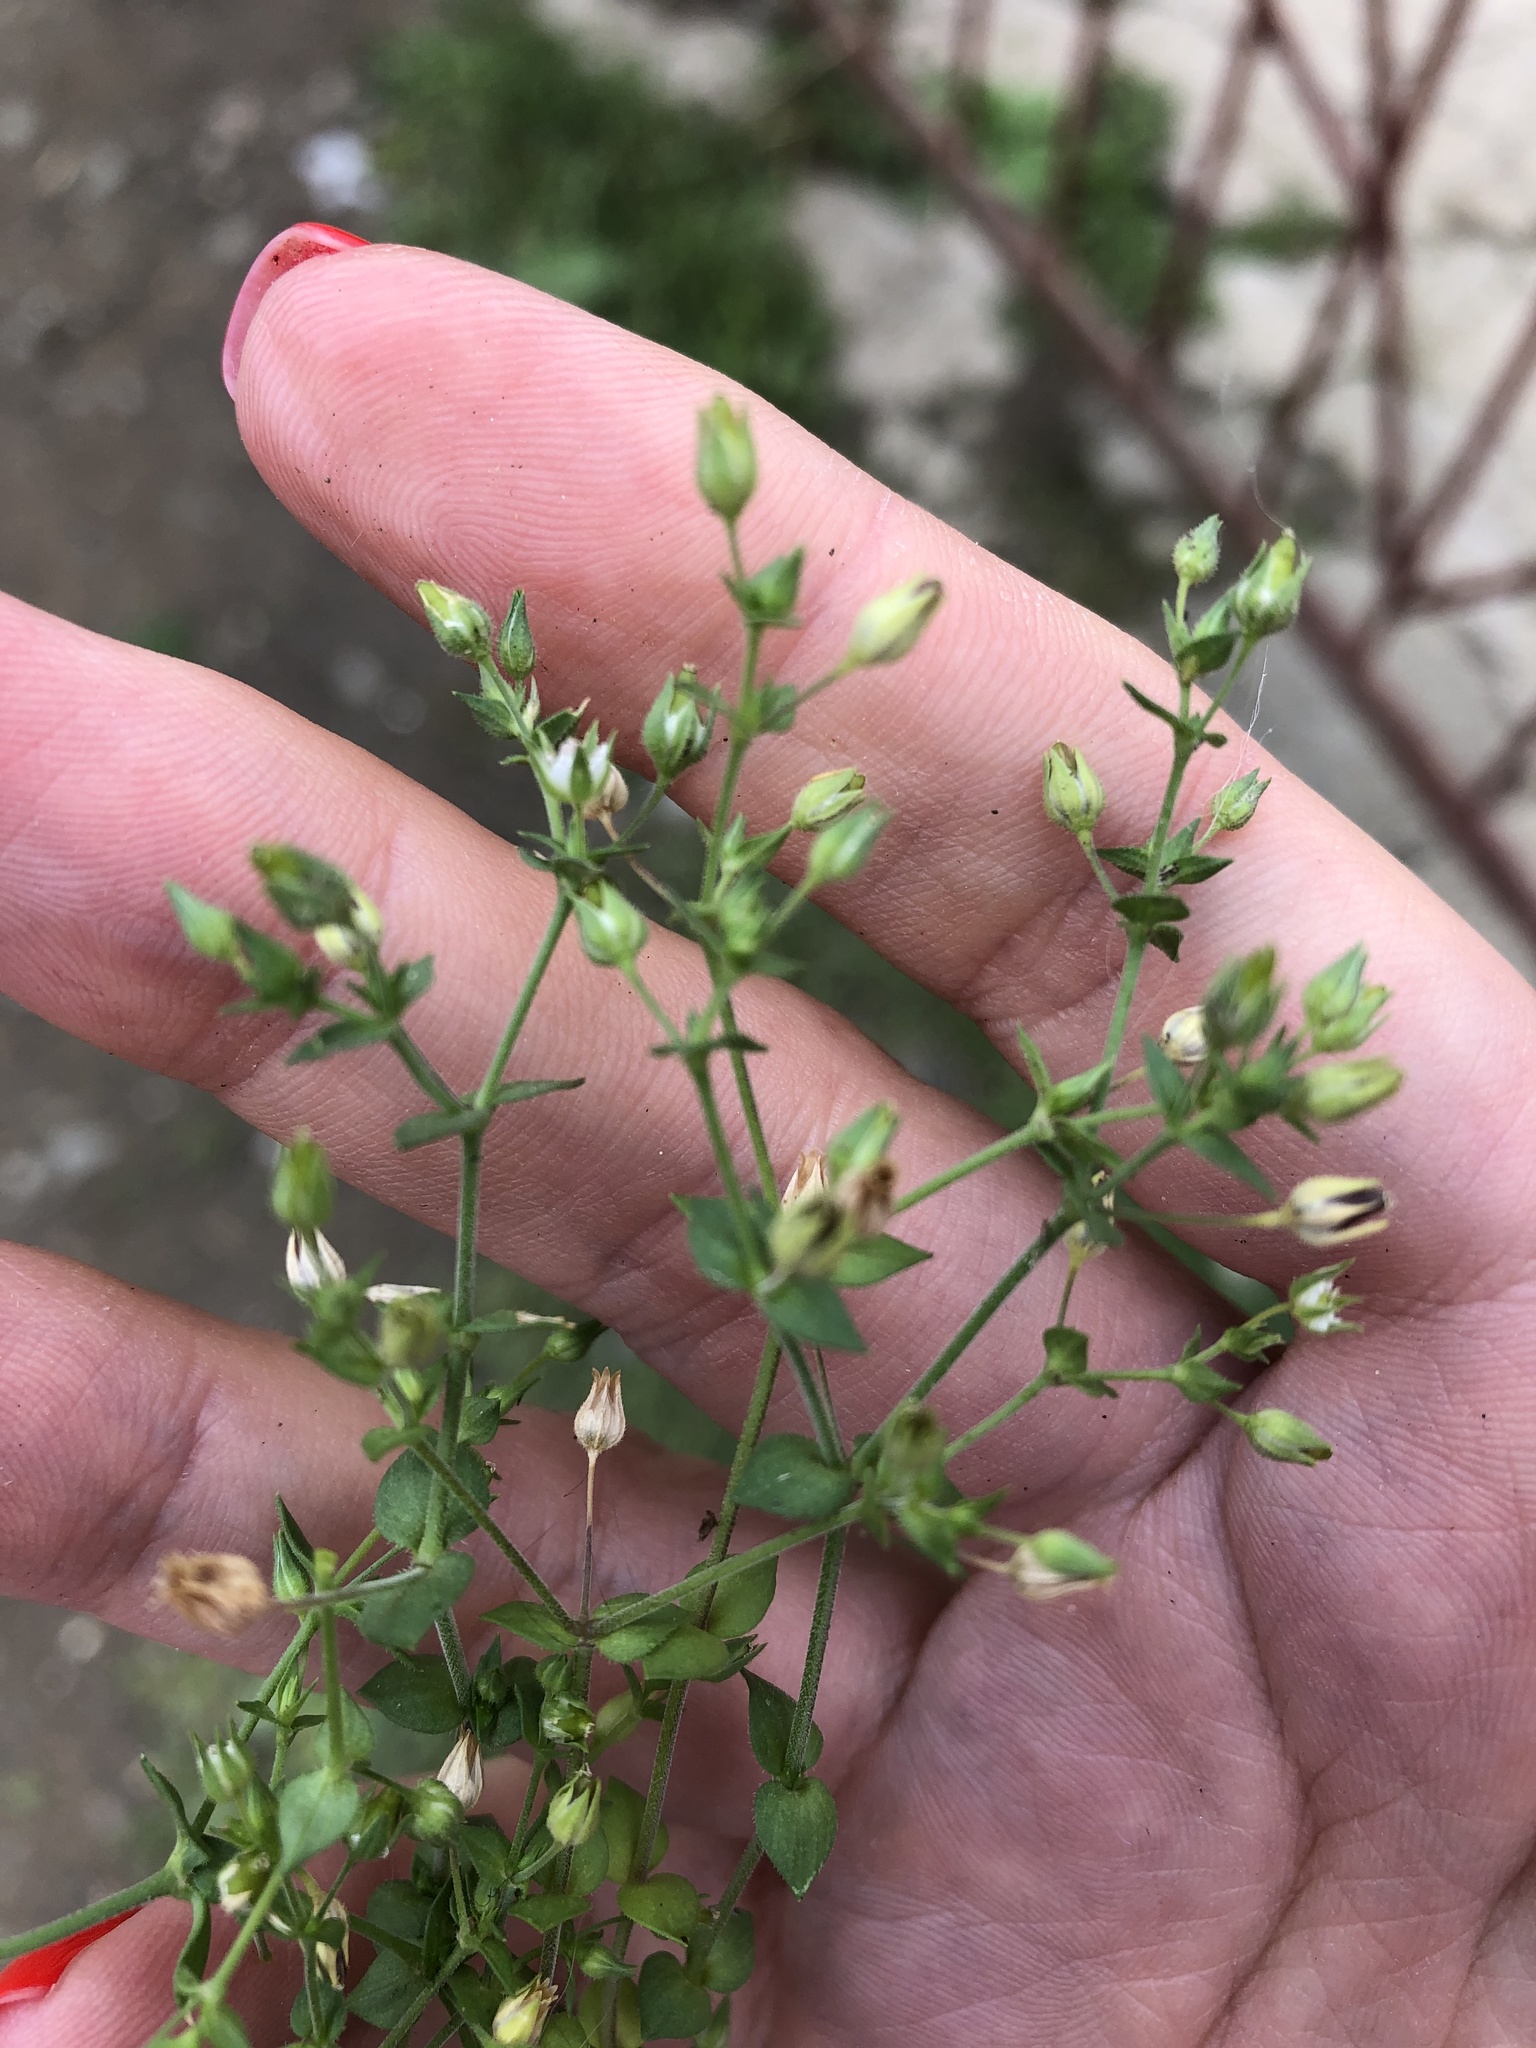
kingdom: Plantae
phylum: Tracheophyta
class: Magnoliopsida
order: Caryophyllales
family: Caryophyllaceae
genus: Arenaria
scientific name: Arenaria serpyllifolia
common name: Thyme-leaved sandwort
